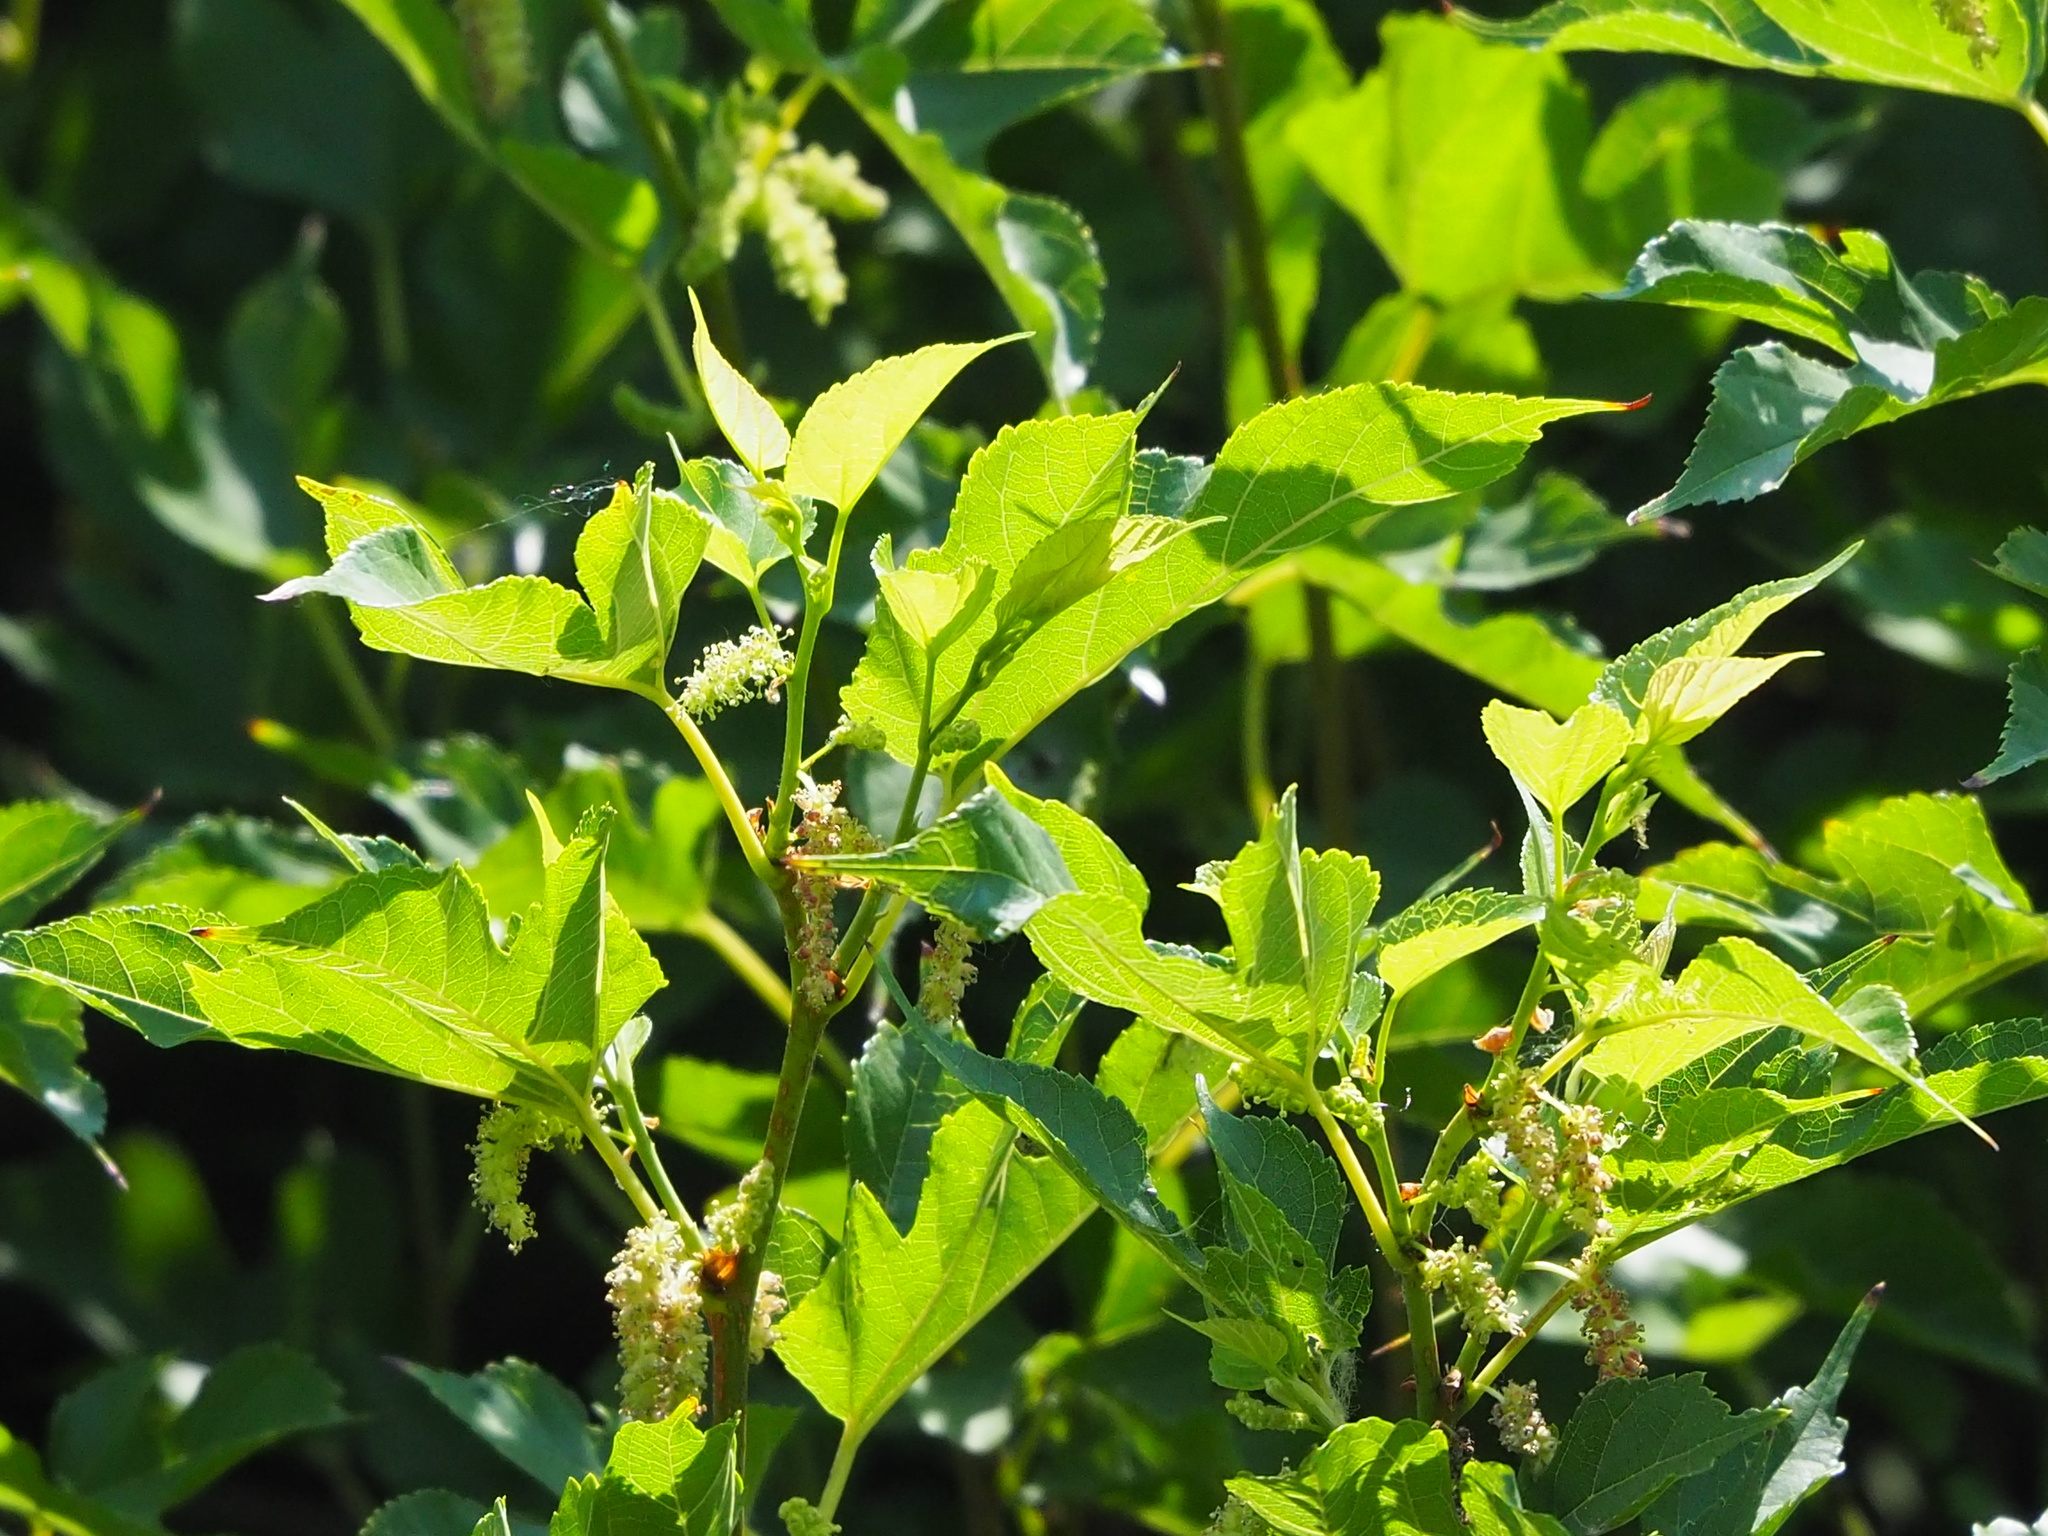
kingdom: Plantae
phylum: Tracheophyta
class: Magnoliopsida
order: Rosales
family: Moraceae
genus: Morus
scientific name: Morus indica
